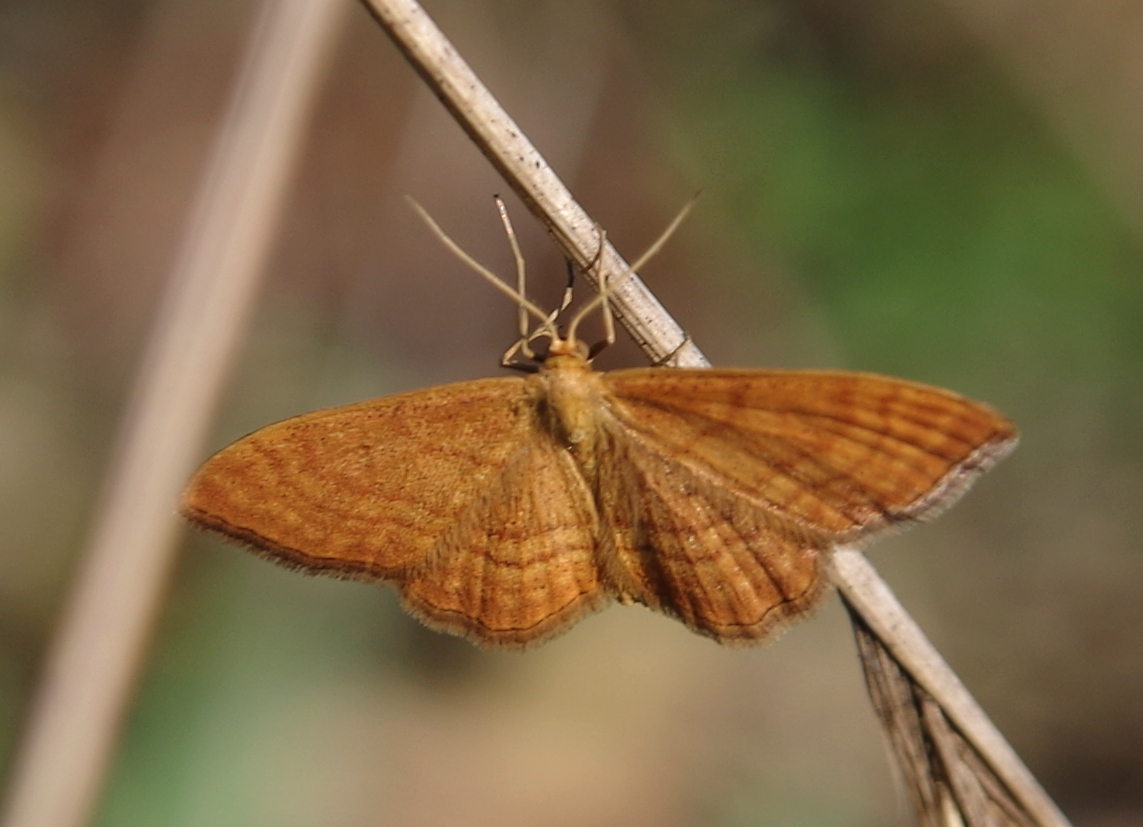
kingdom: Animalia
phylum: Arthropoda
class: Insecta
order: Lepidoptera
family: Geometridae
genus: Idaea
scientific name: Idaea ochrata
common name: Bright wave
